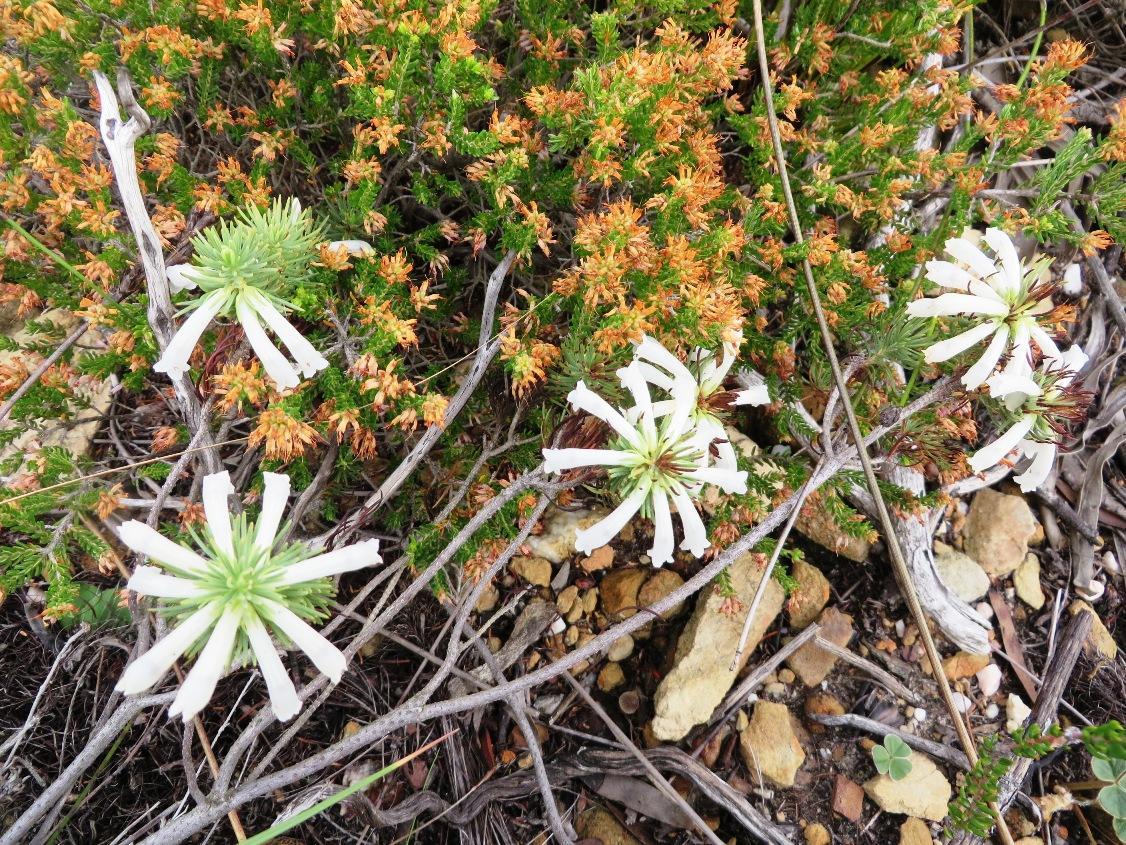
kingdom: Plantae
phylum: Tracheophyta
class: Magnoliopsida
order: Ericales
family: Ericaceae
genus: Erica
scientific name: Erica viscaria
